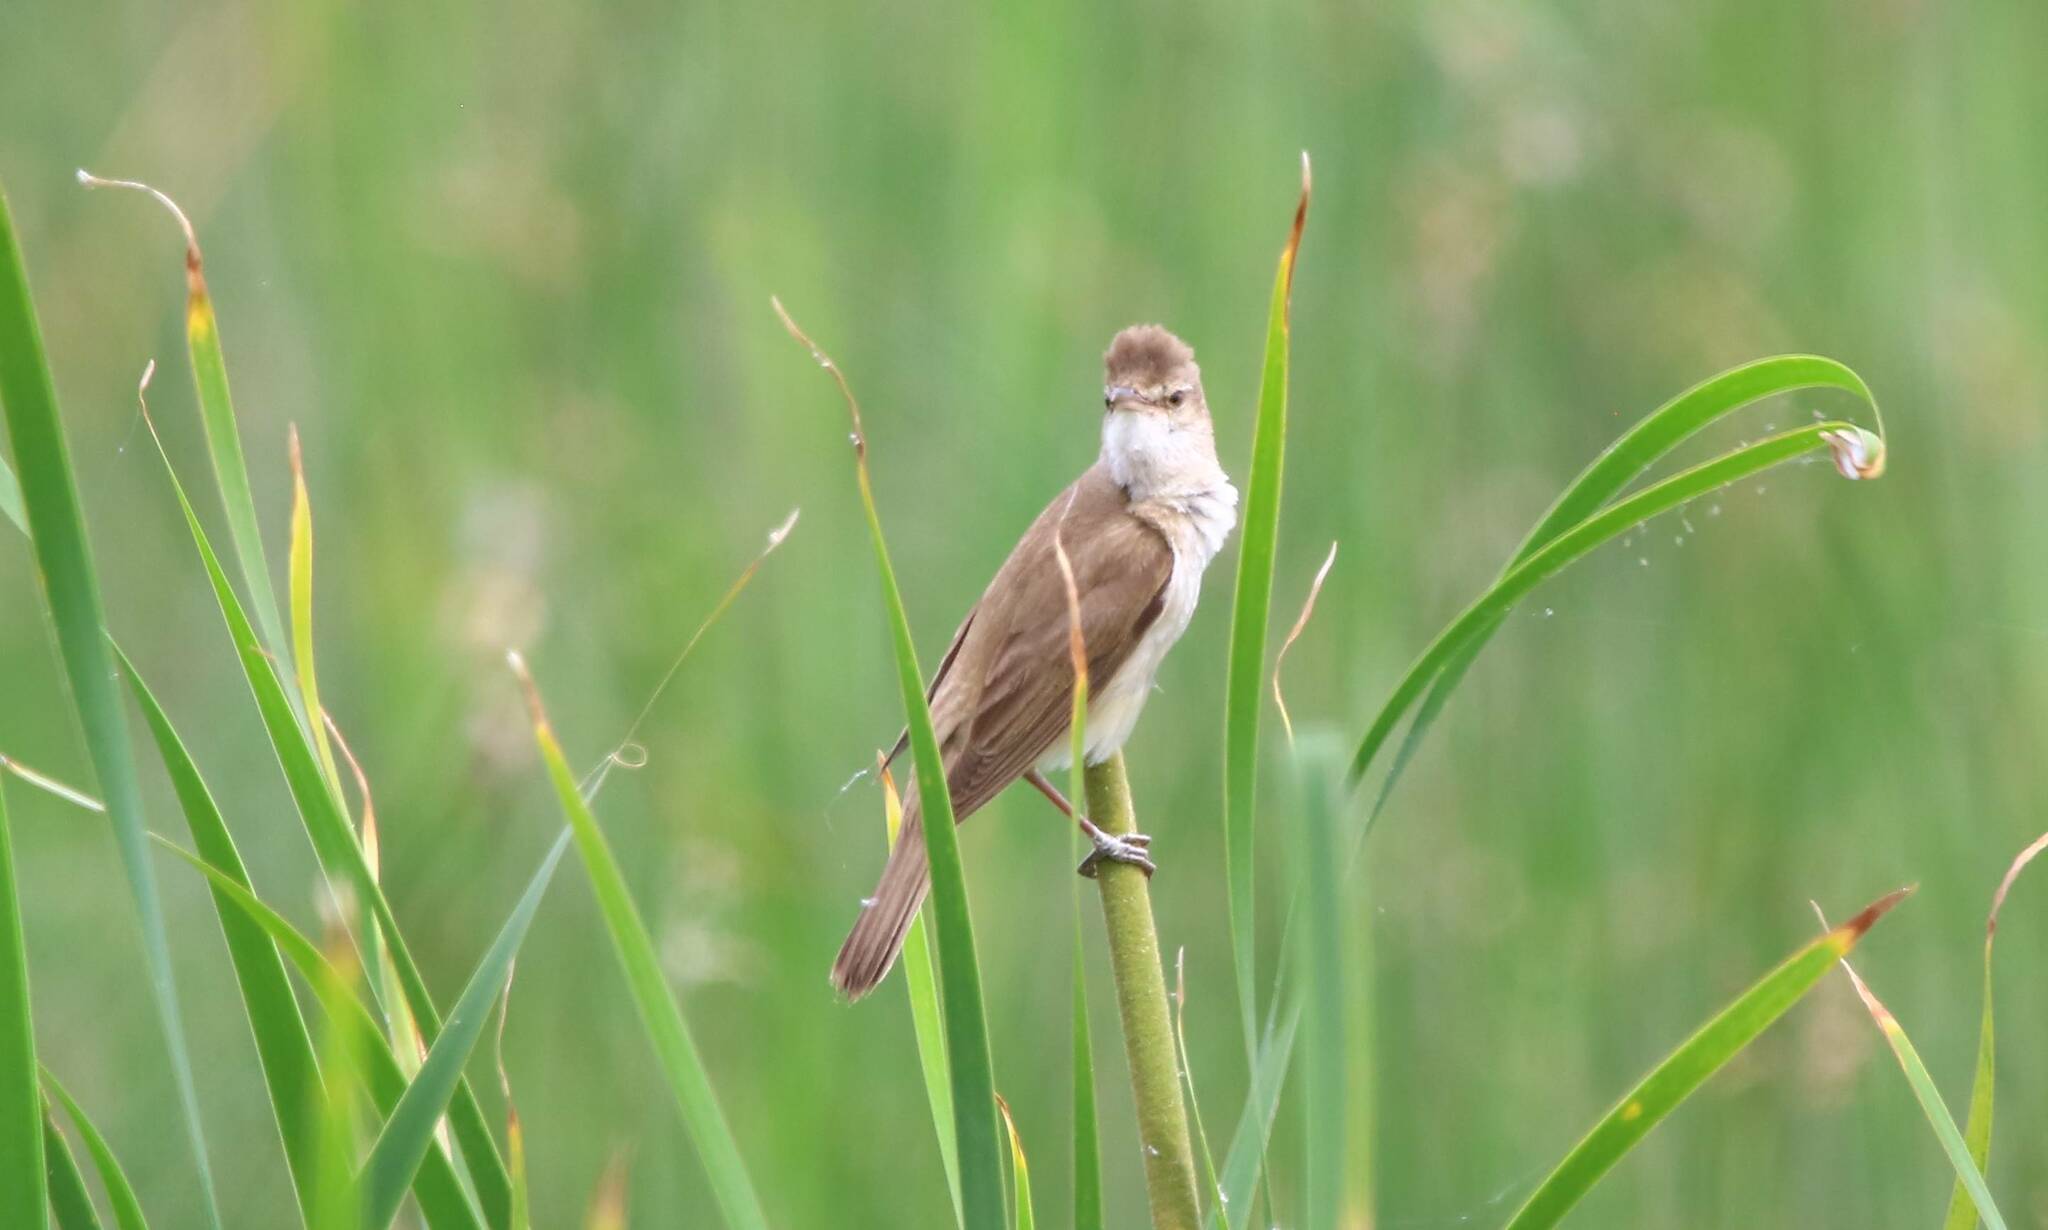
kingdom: Animalia
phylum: Chordata
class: Aves
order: Passeriformes
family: Acrocephalidae
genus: Acrocephalus
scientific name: Acrocephalus arundinaceus
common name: Great reed warbler
